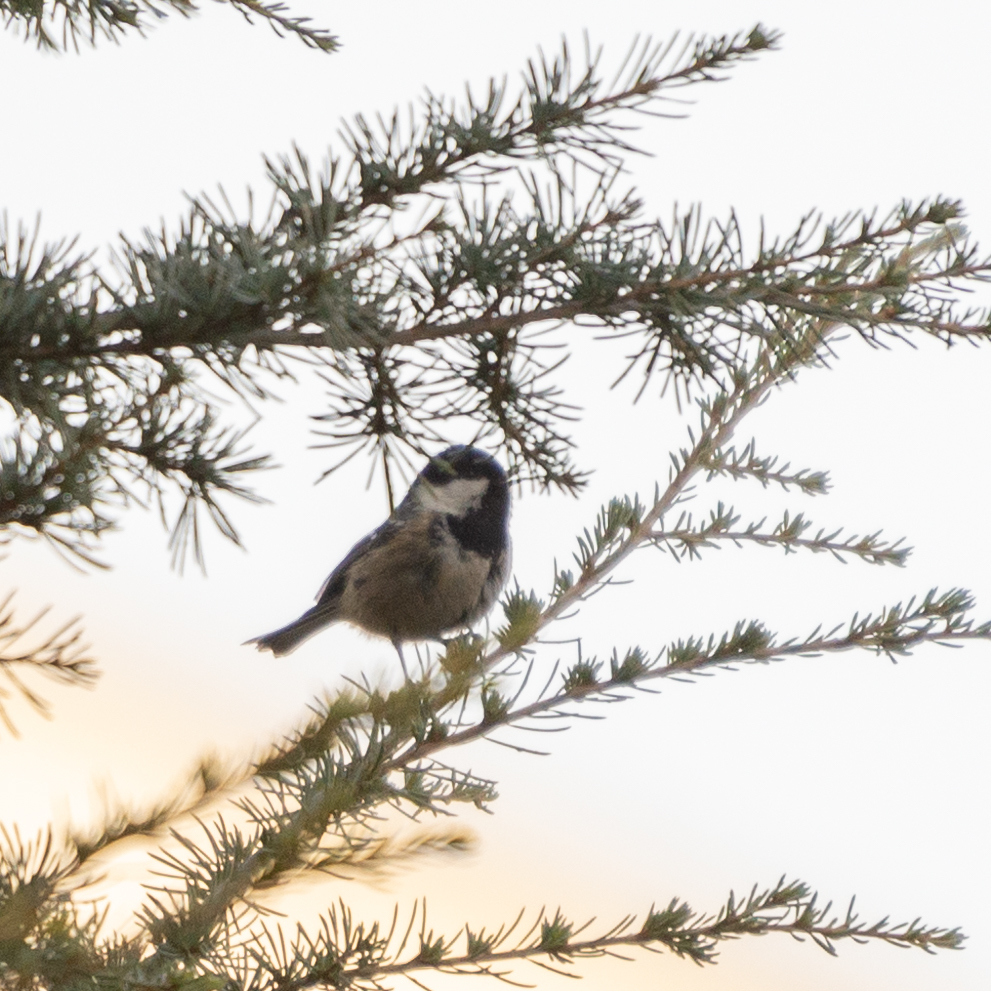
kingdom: Animalia
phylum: Chordata
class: Aves
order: Passeriformes
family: Paridae
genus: Periparus
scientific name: Periparus ater
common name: Coal tit
